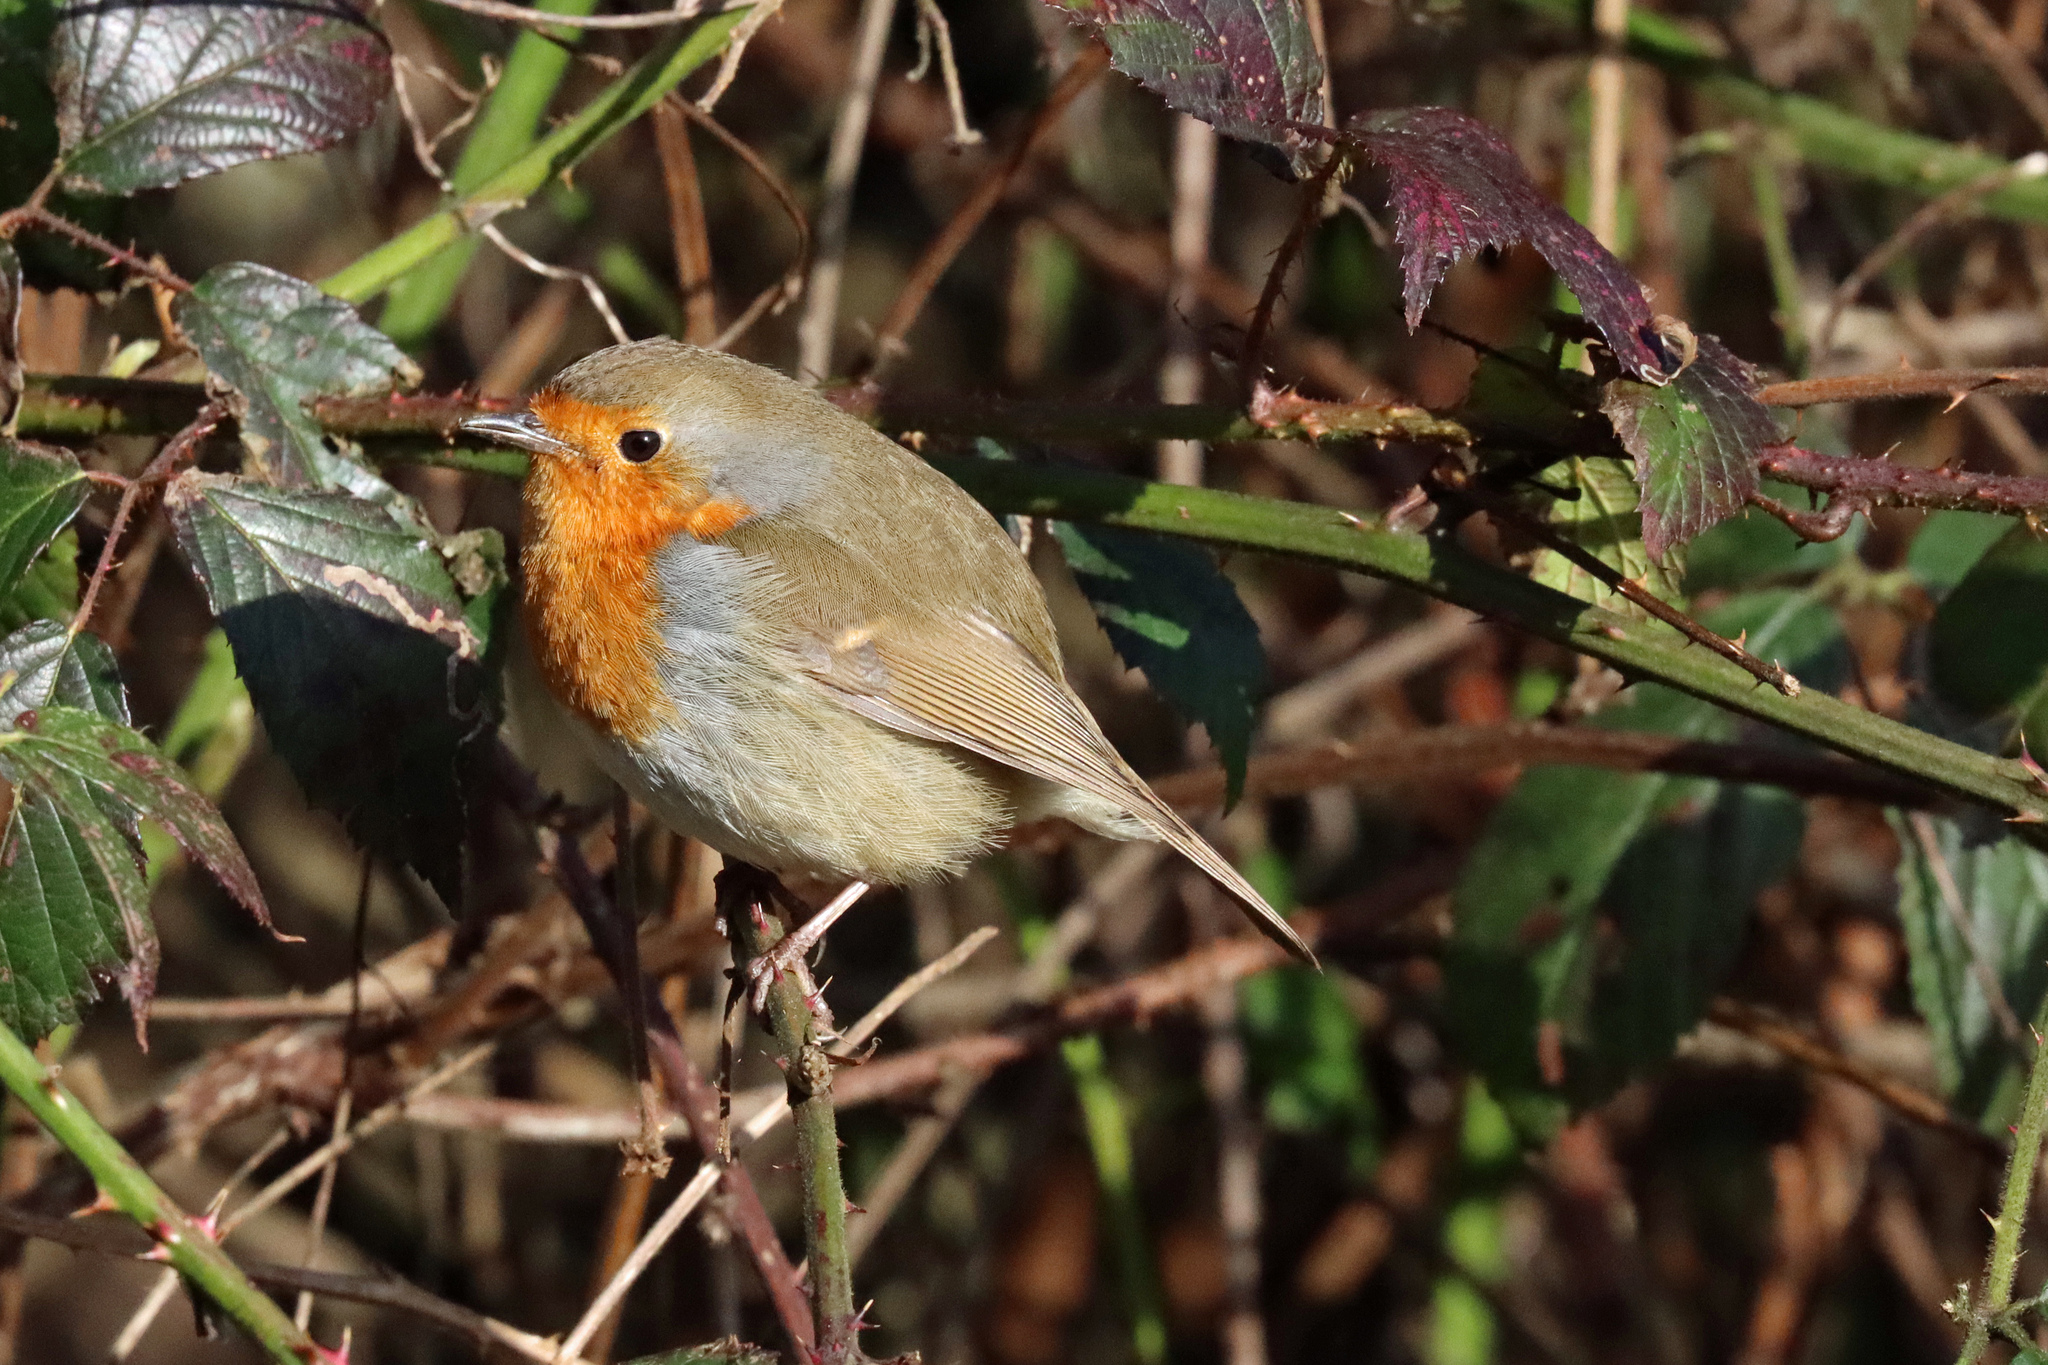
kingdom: Animalia
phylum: Chordata
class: Aves
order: Passeriformes
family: Muscicapidae
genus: Erithacus
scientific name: Erithacus rubecula
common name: European robin
